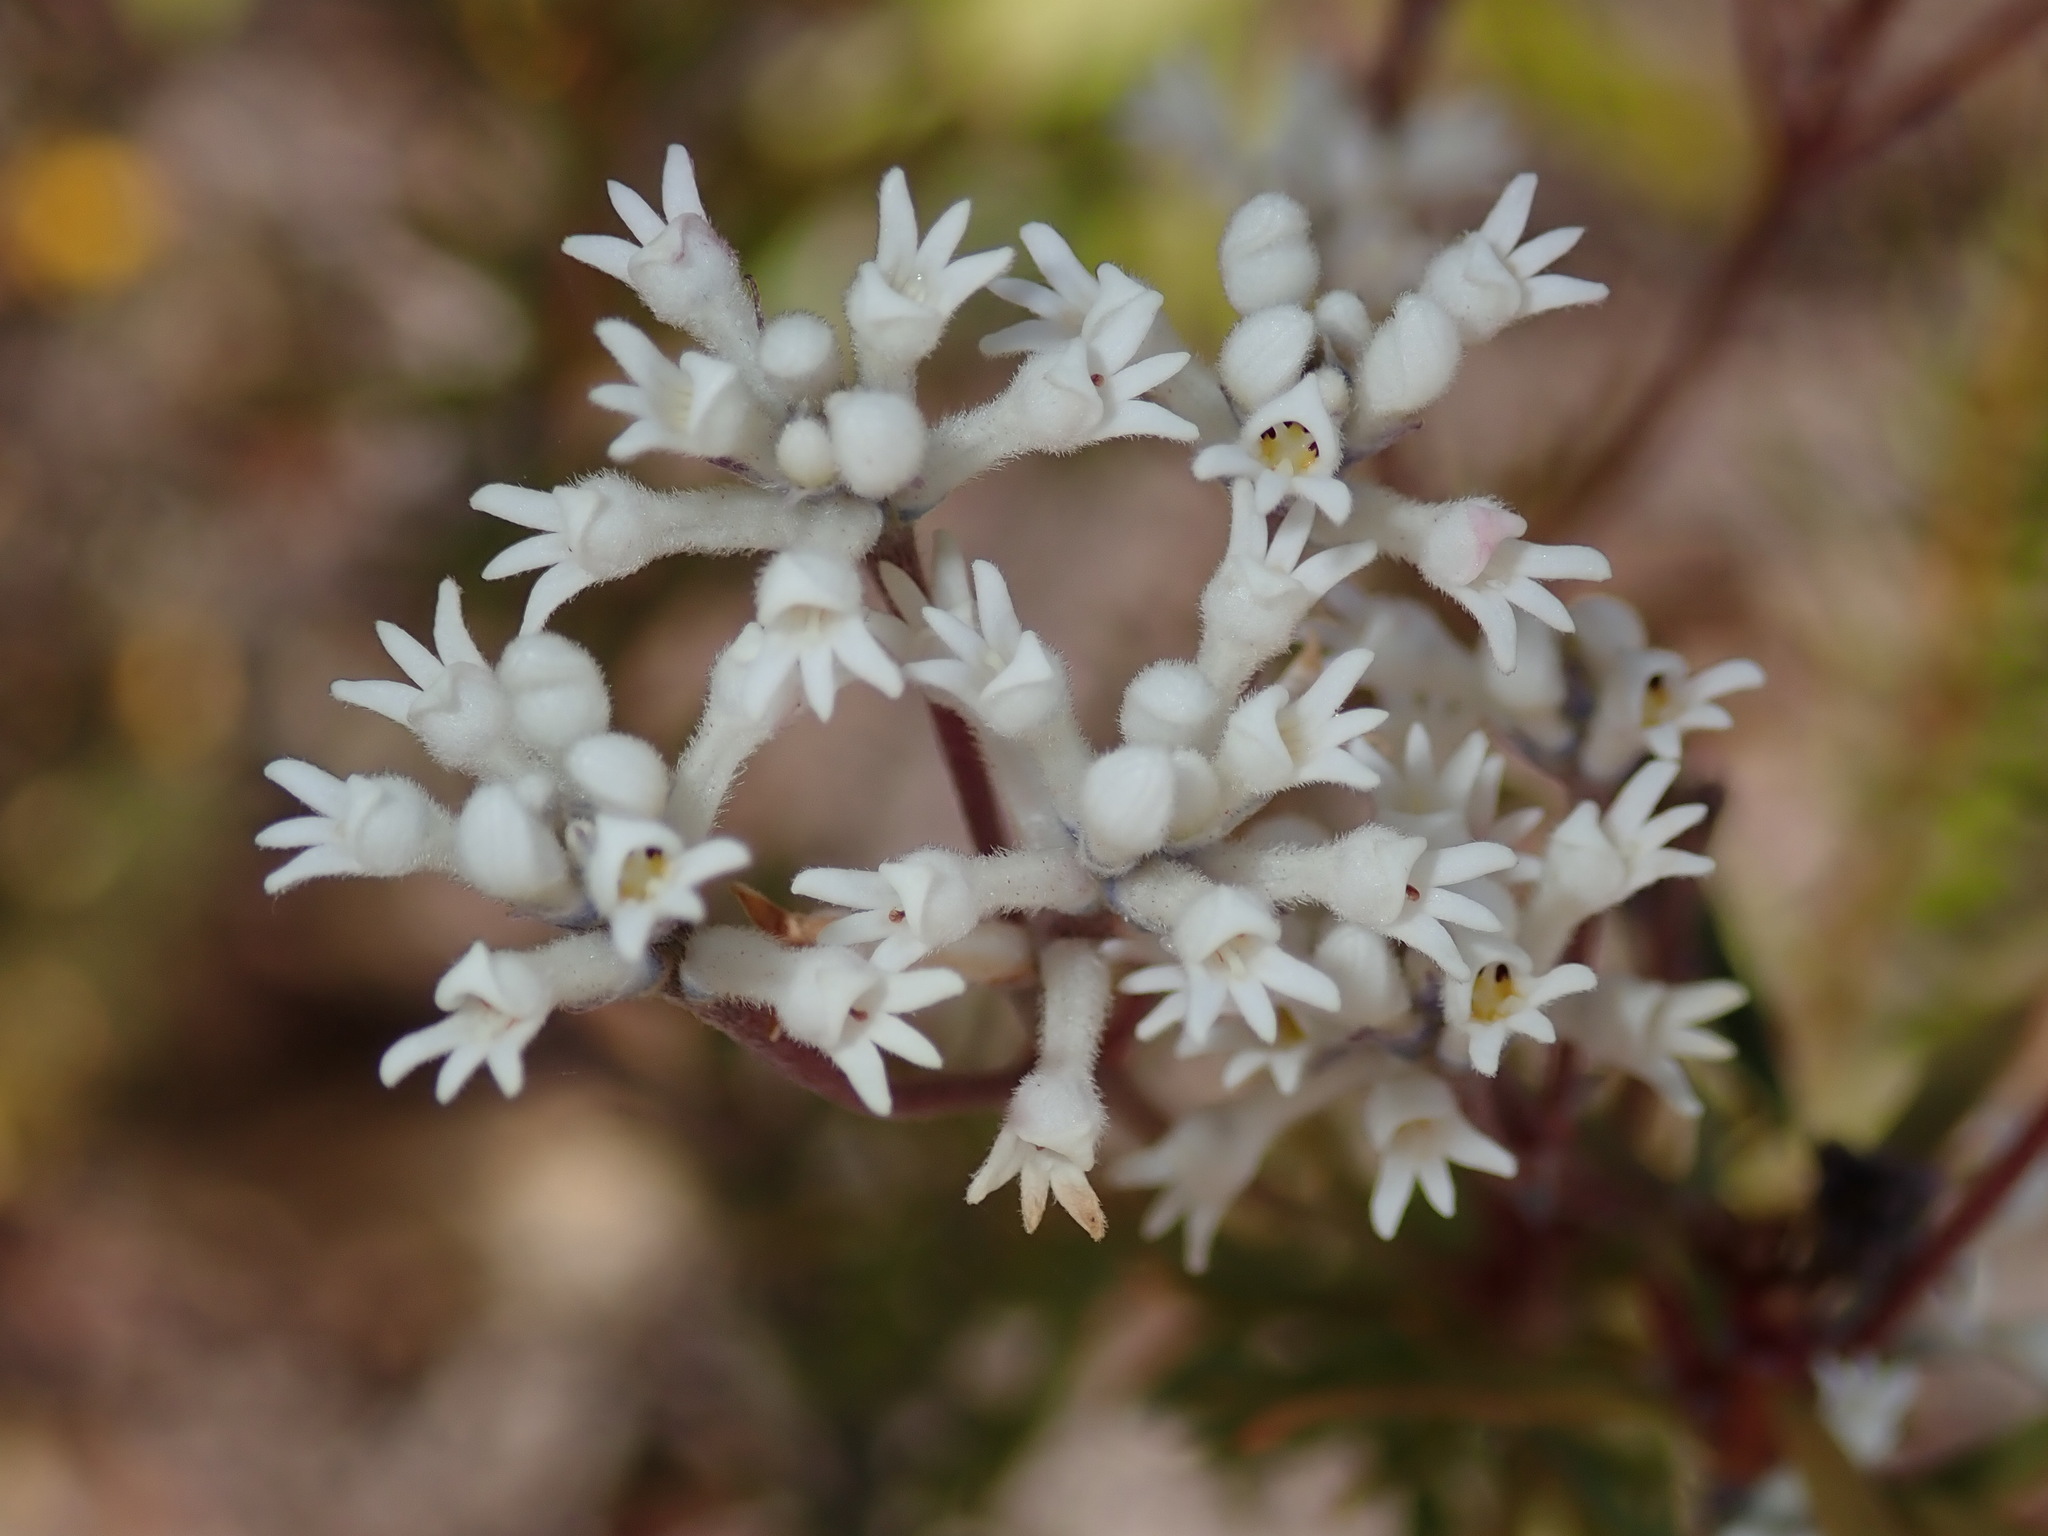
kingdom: Plantae
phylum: Tracheophyta
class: Magnoliopsida
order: Proteales
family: Proteaceae
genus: Conospermum
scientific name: Conospermum taxifolium
